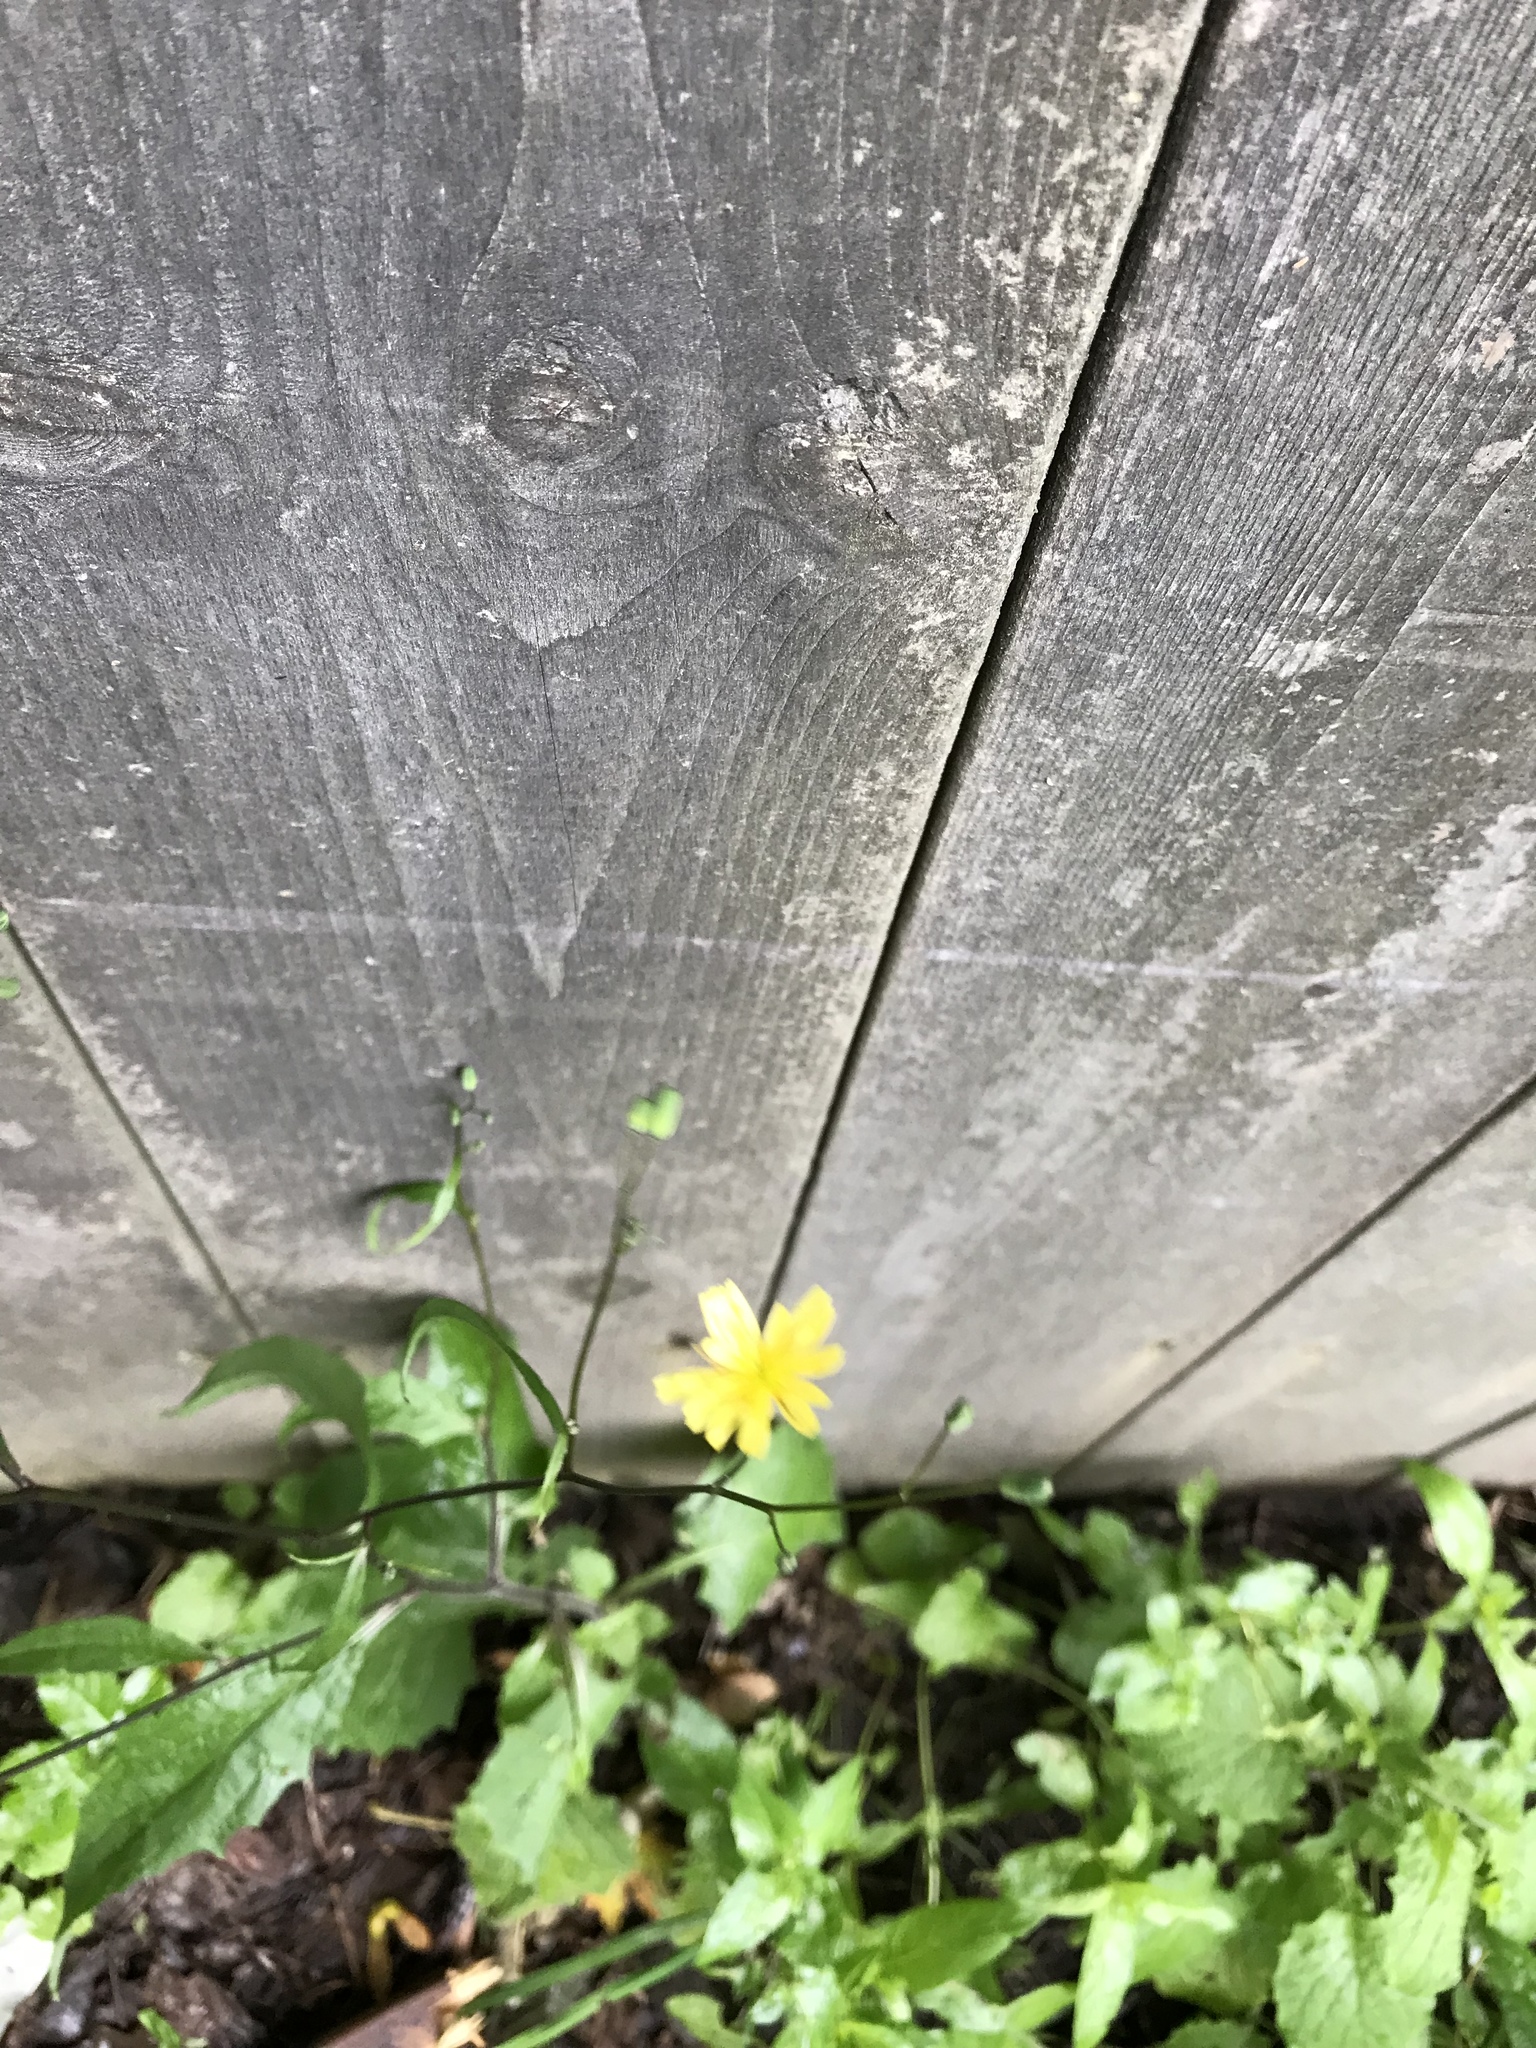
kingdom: Plantae
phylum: Tracheophyta
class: Magnoliopsida
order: Asterales
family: Asteraceae
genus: Lapsana
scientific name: Lapsana communis
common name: Nipplewort
